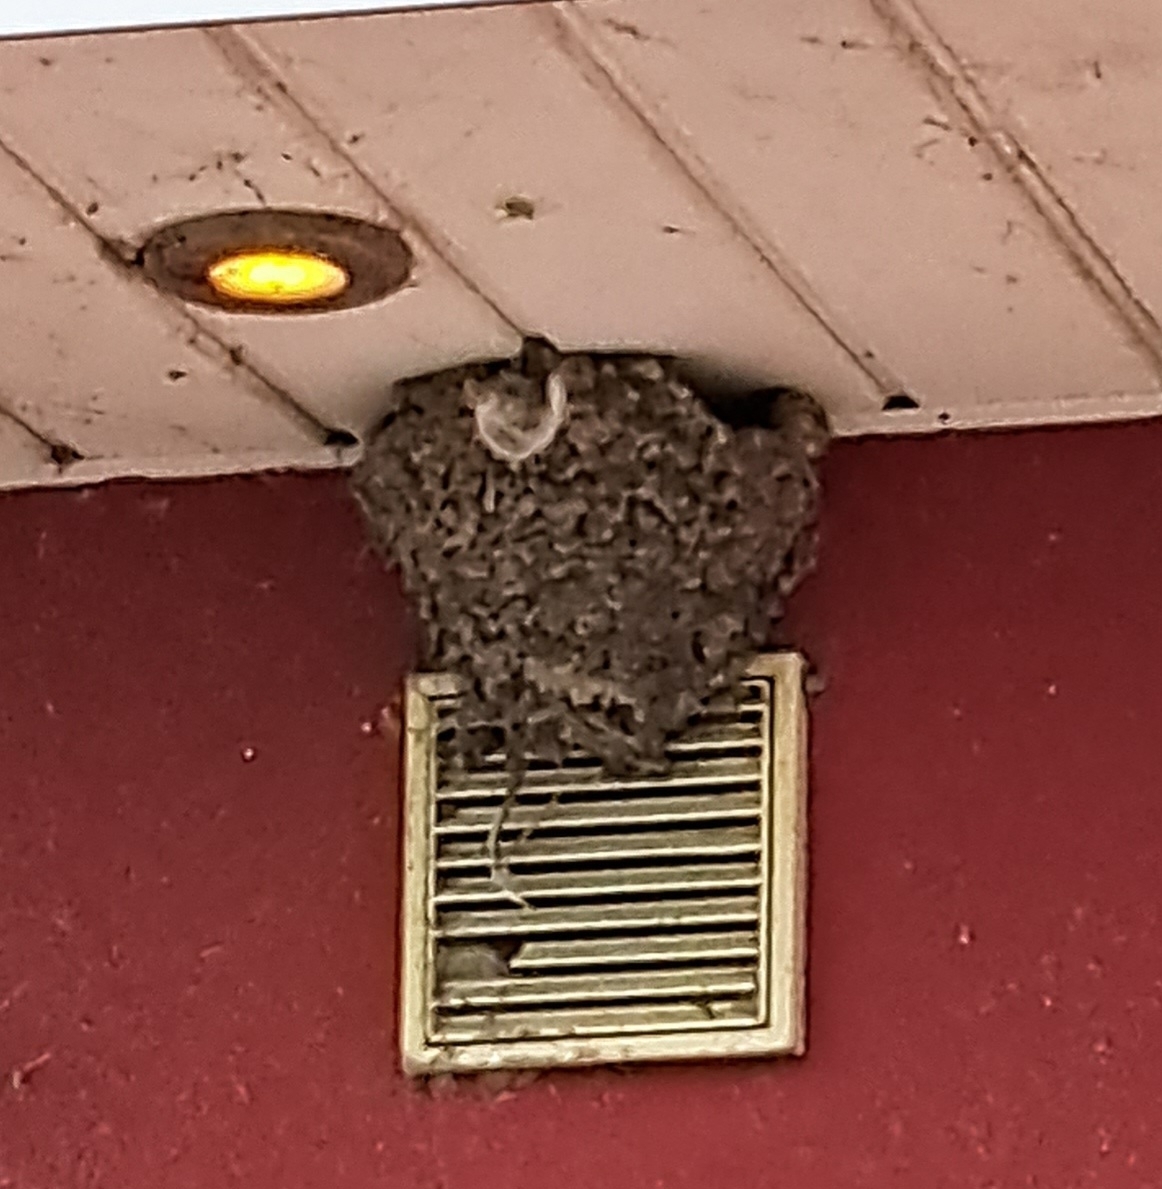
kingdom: Animalia
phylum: Chordata
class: Aves
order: Passeriformes
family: Hirundinidae
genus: Delichon
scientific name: Delichon urbicum
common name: Common house martin
